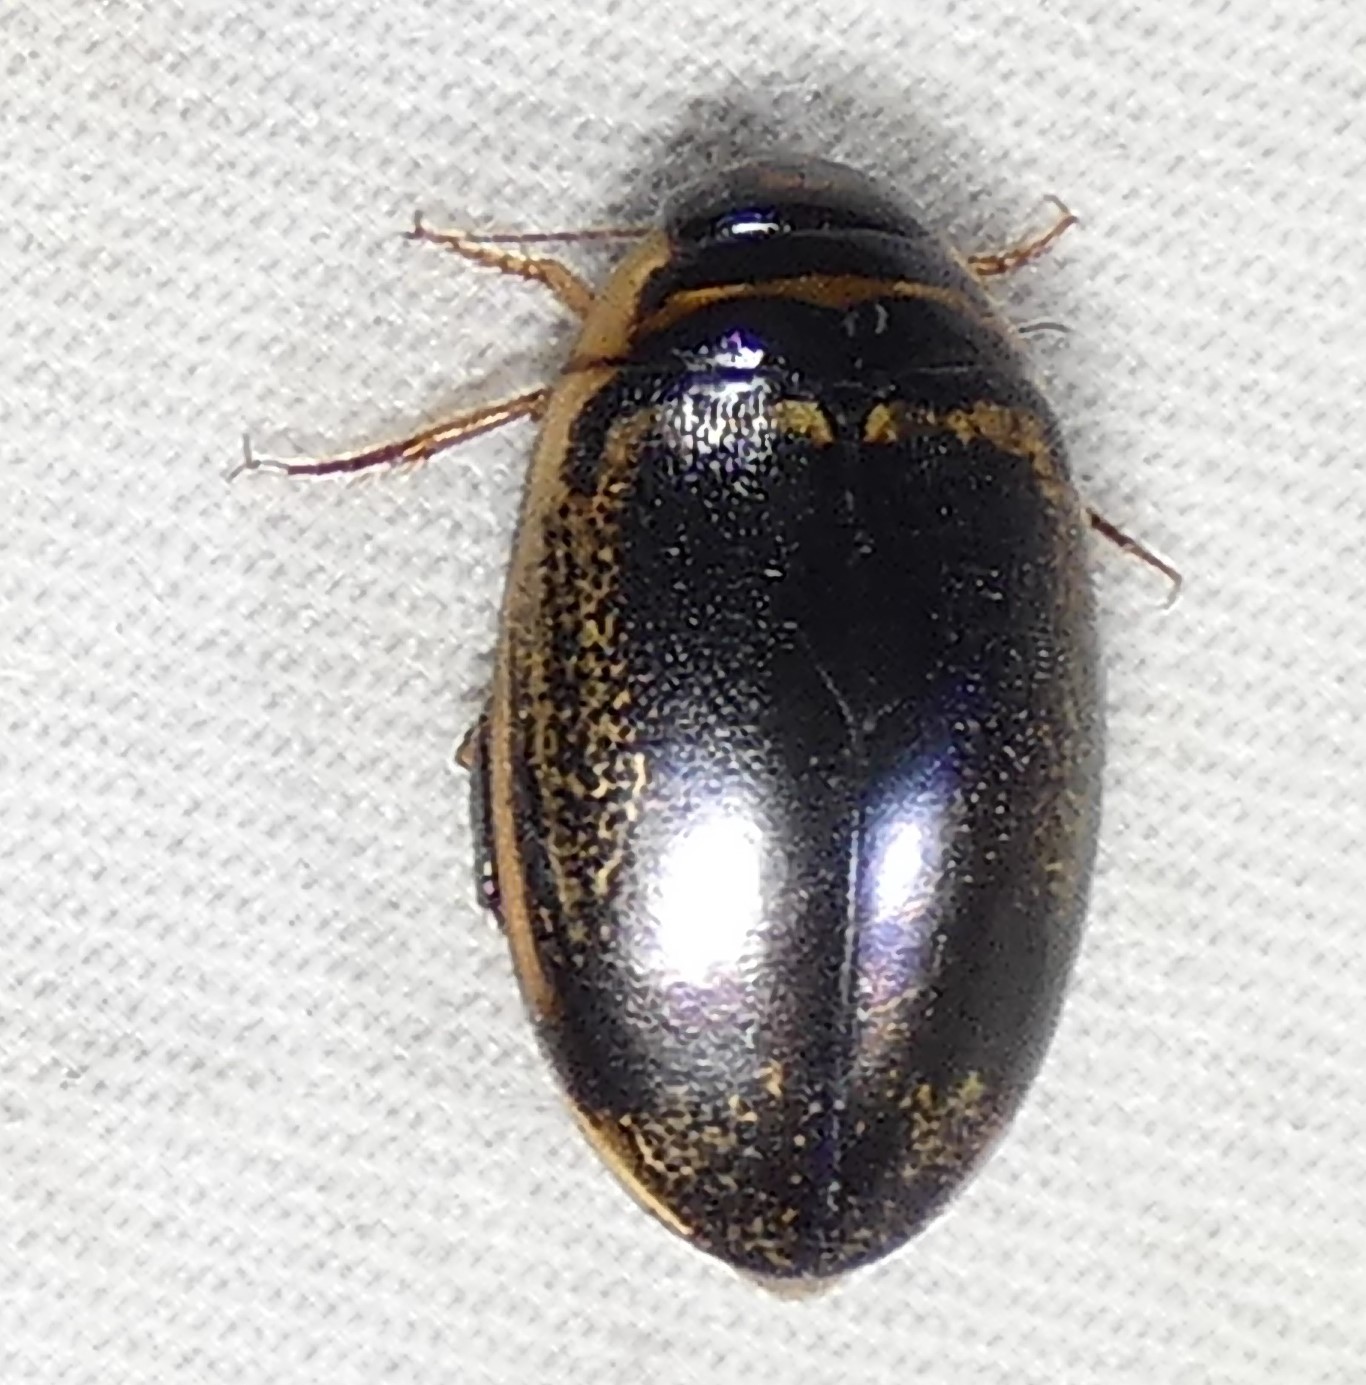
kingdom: Animalia
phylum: Arthropoda
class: Insecta
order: Coleoptera
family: Dytiscidae
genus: Thermonectus
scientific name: Thermonectus basillaris
